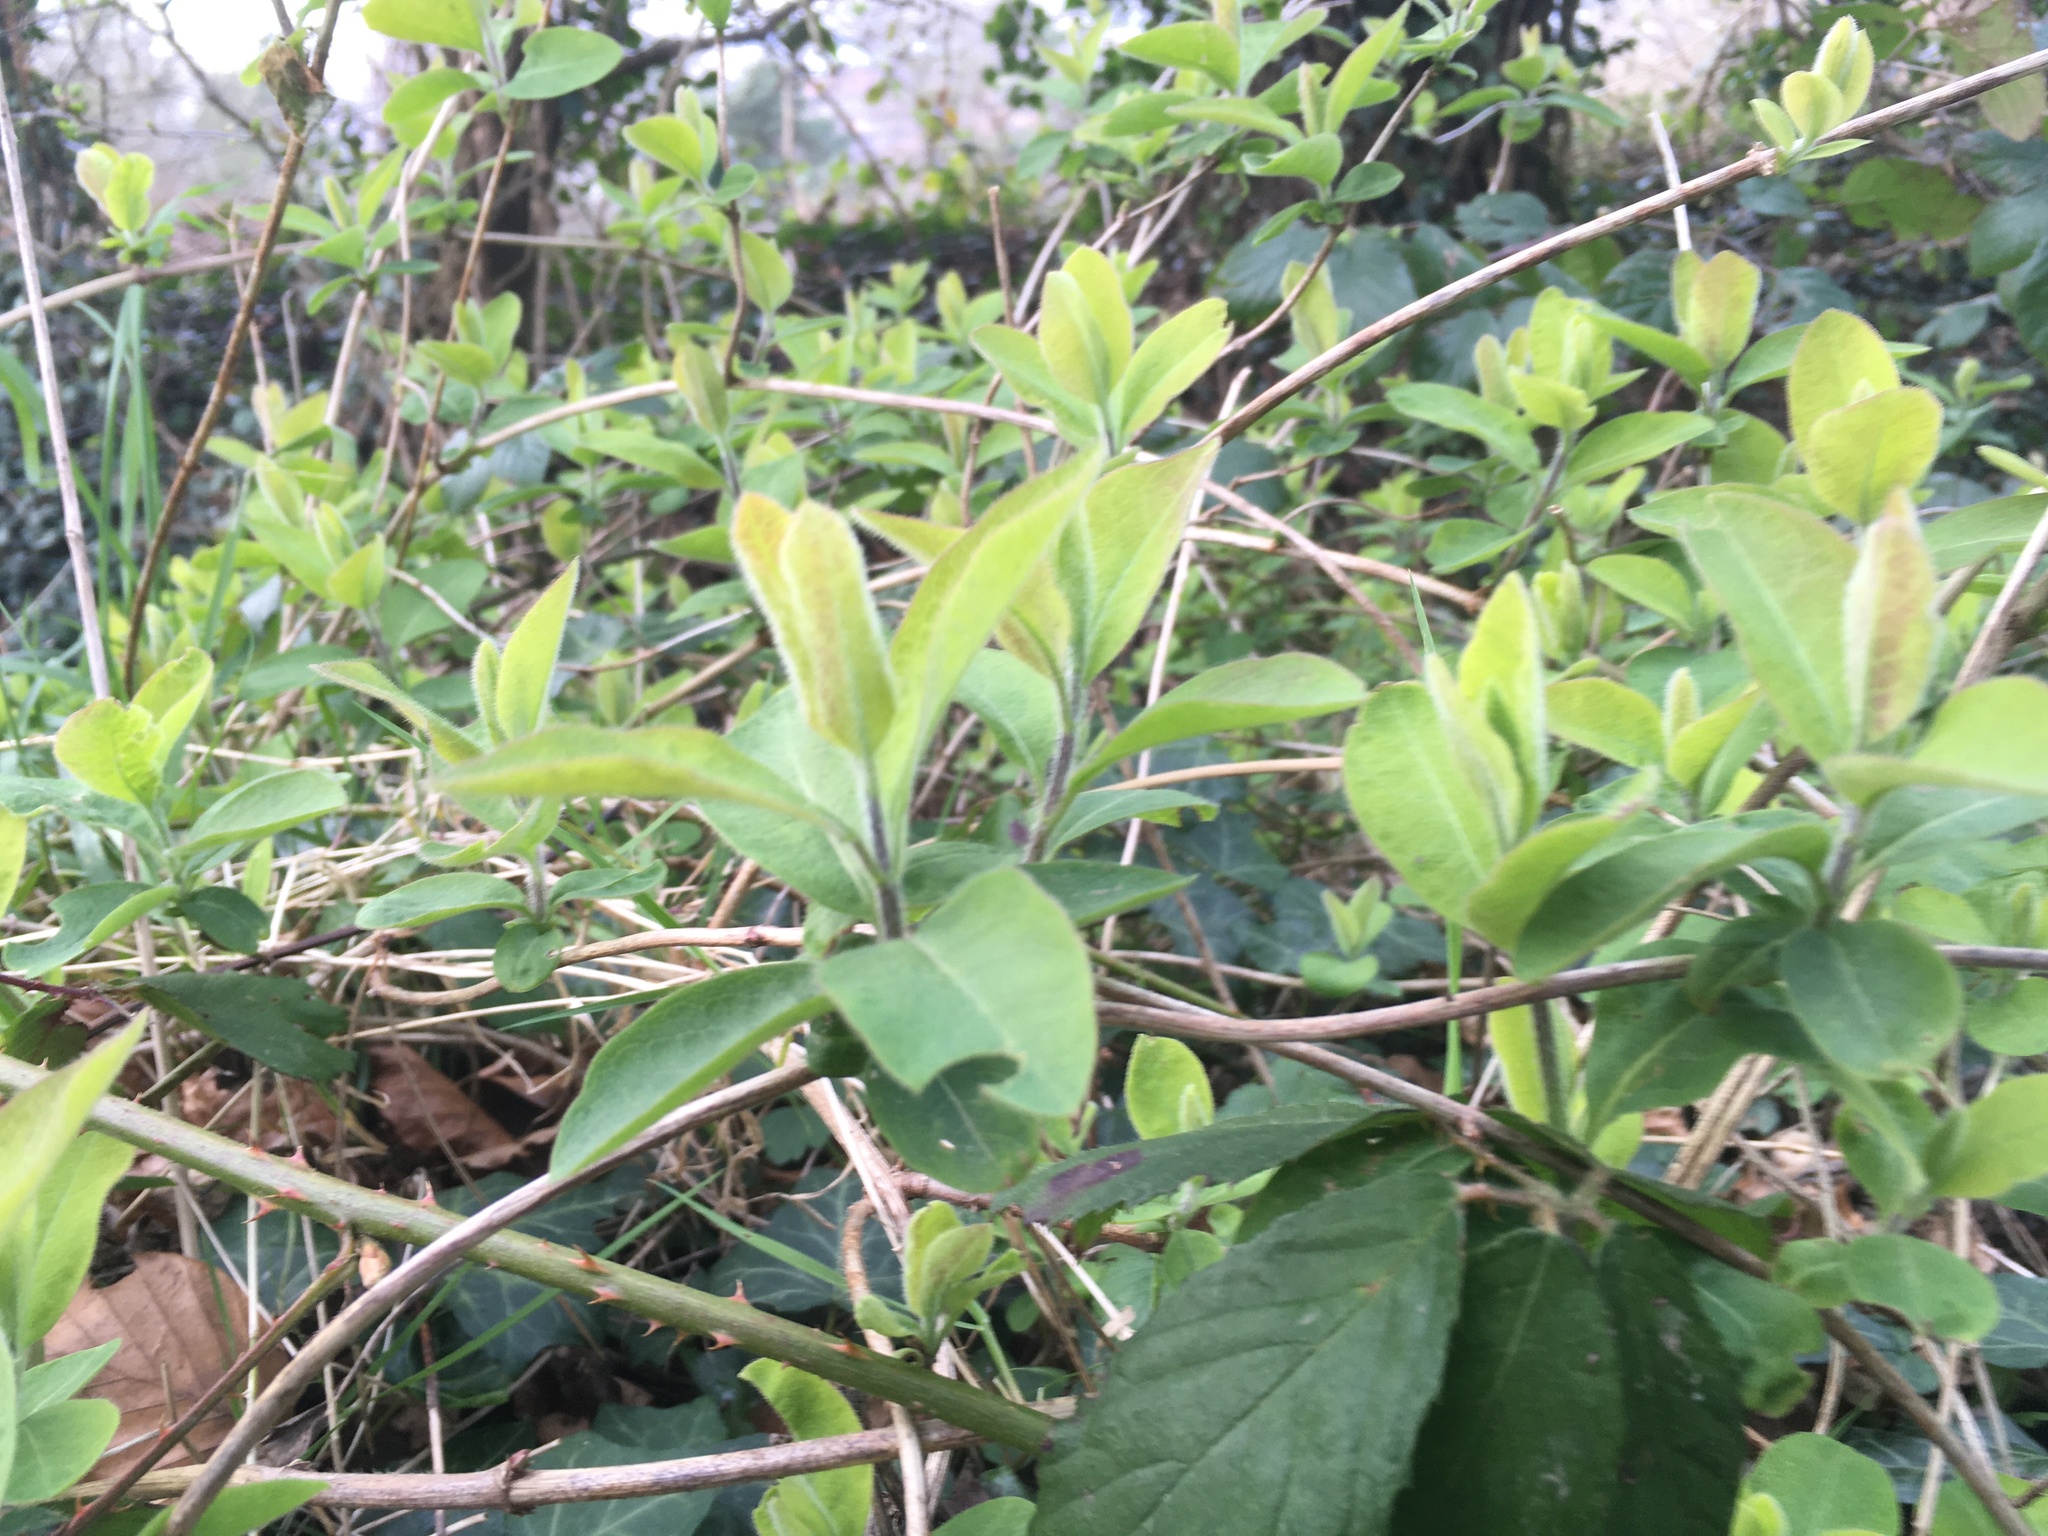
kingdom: Plantae
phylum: Tracheophyta
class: Magnoliopsida
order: Dipsacales
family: Caprifoliaceae
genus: Lonicera
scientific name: Lonicera periclymenum
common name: European honeysuckle
